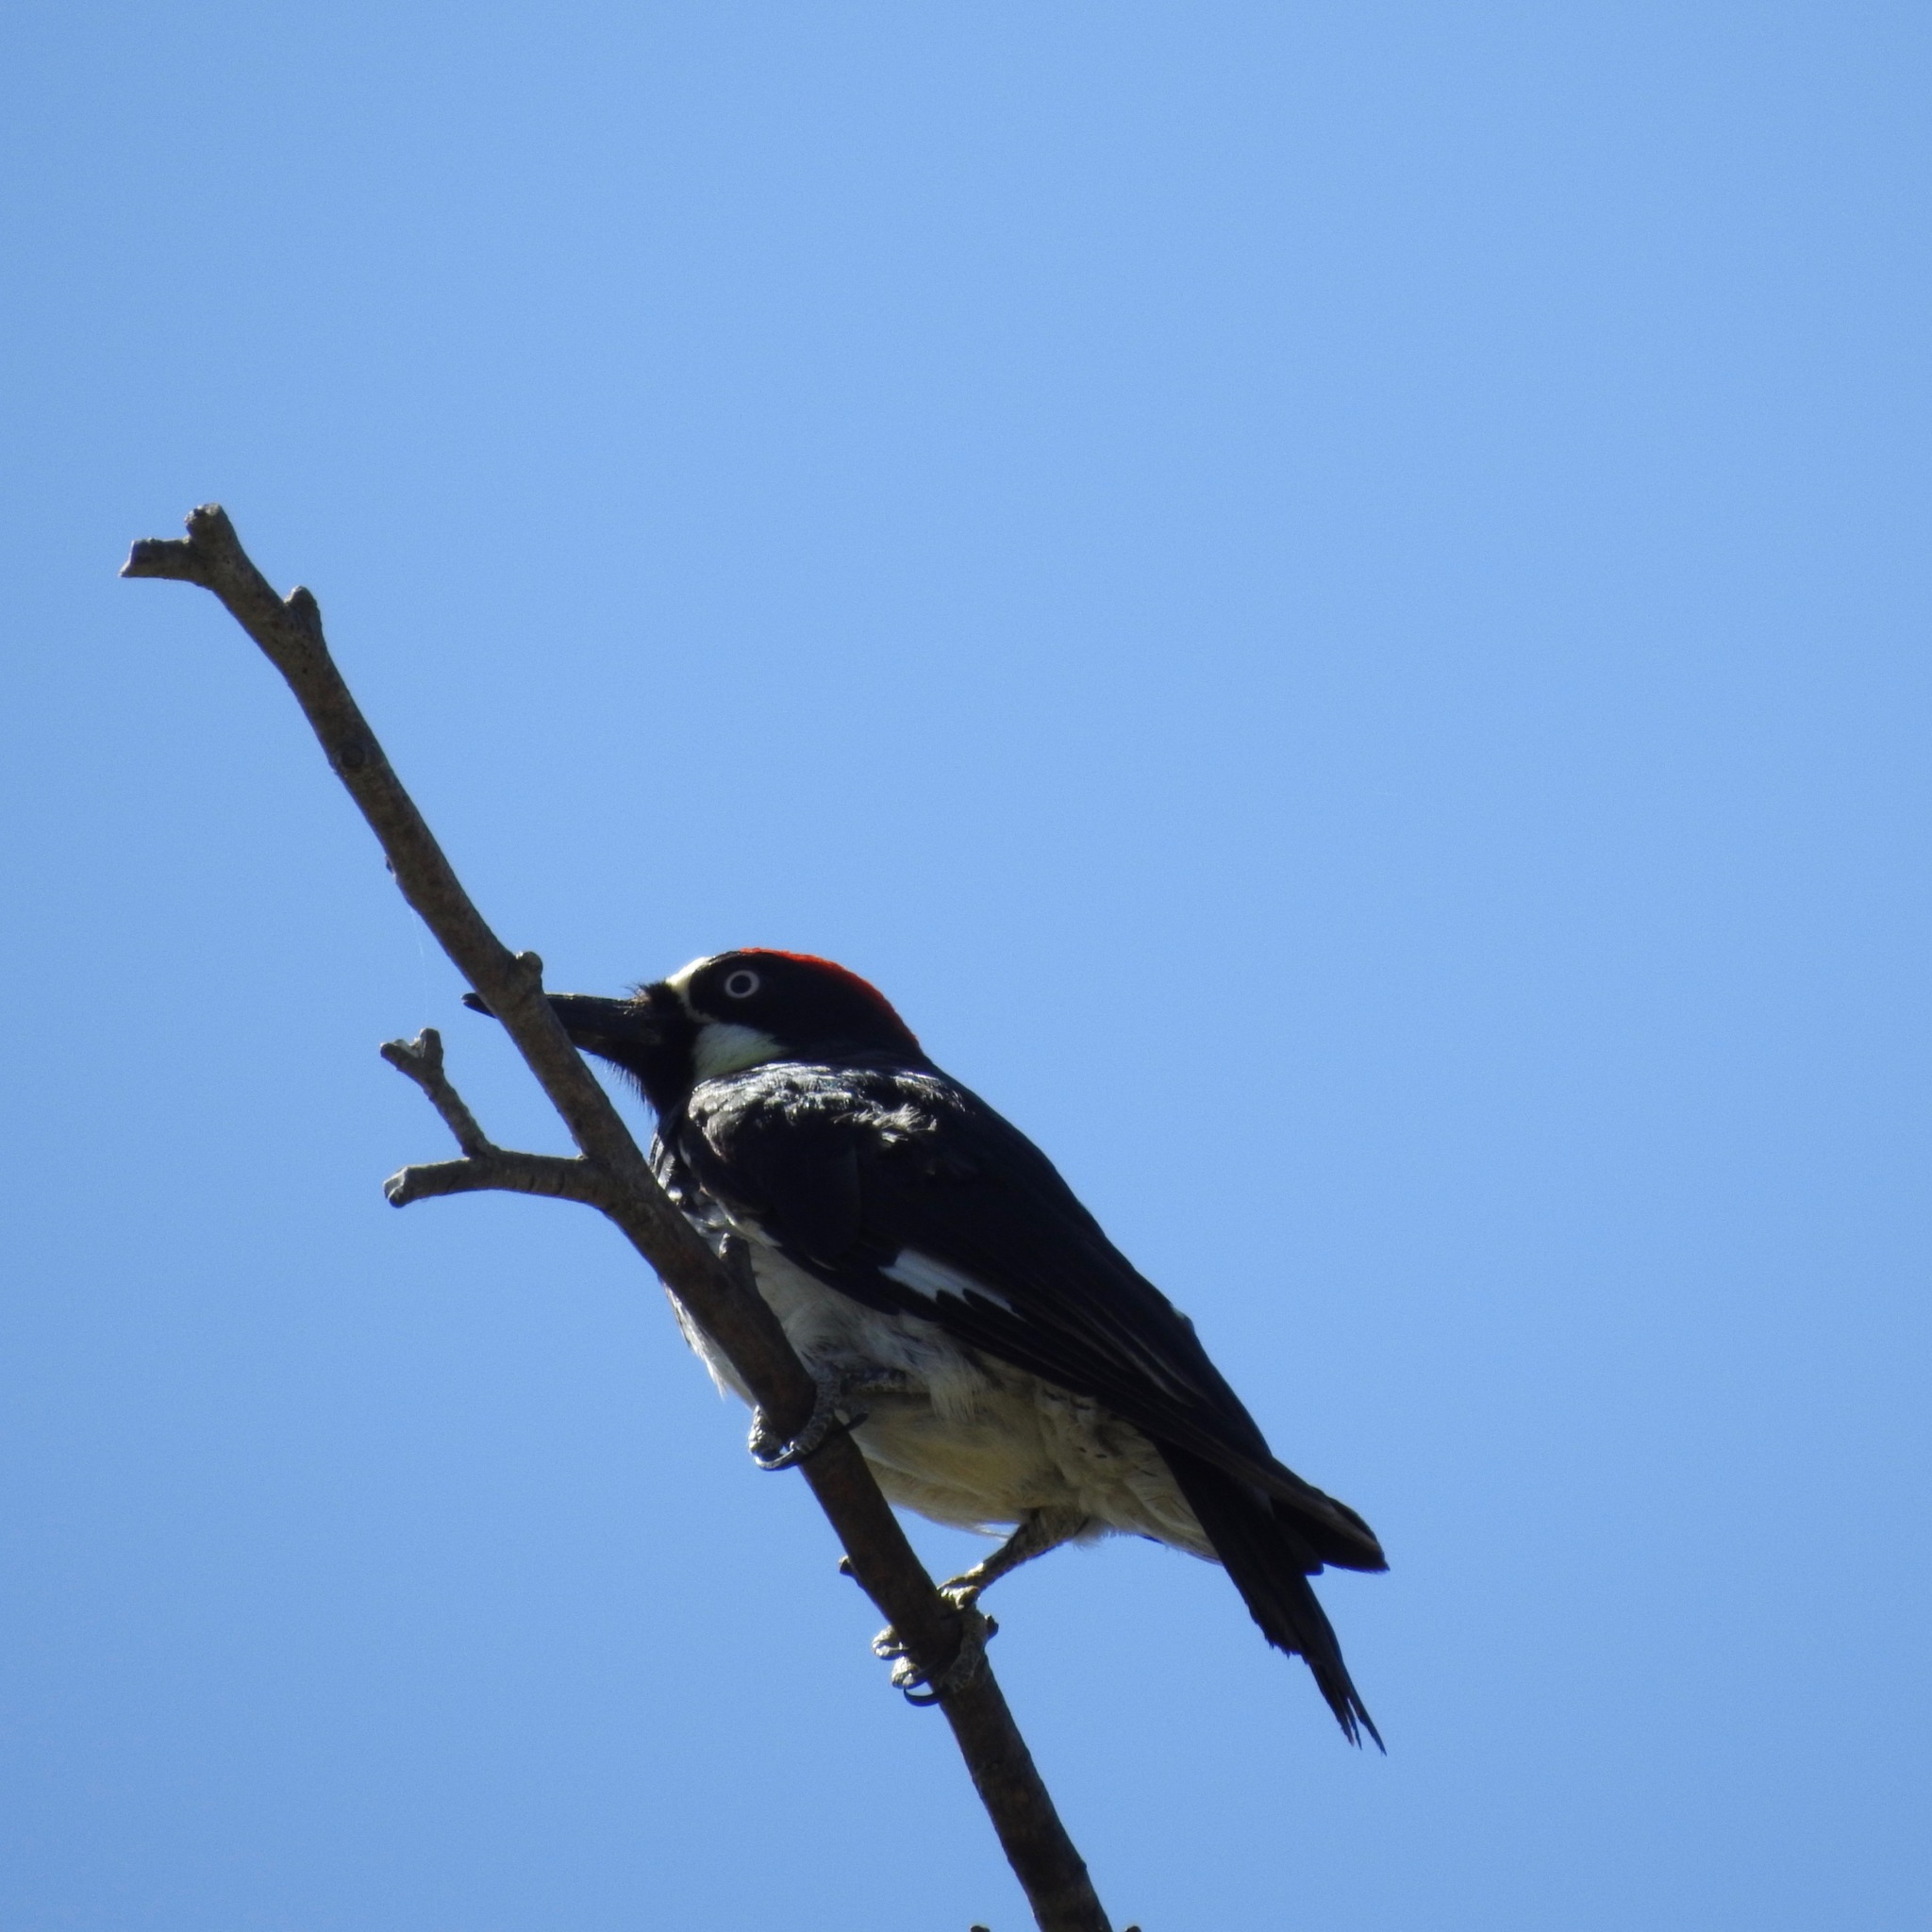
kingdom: Animalia
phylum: Chordata
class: Aves
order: Piciformes
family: Picidae
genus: Melanerpes
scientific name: Melanerpes formicivorus
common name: Acorn woodpecker
